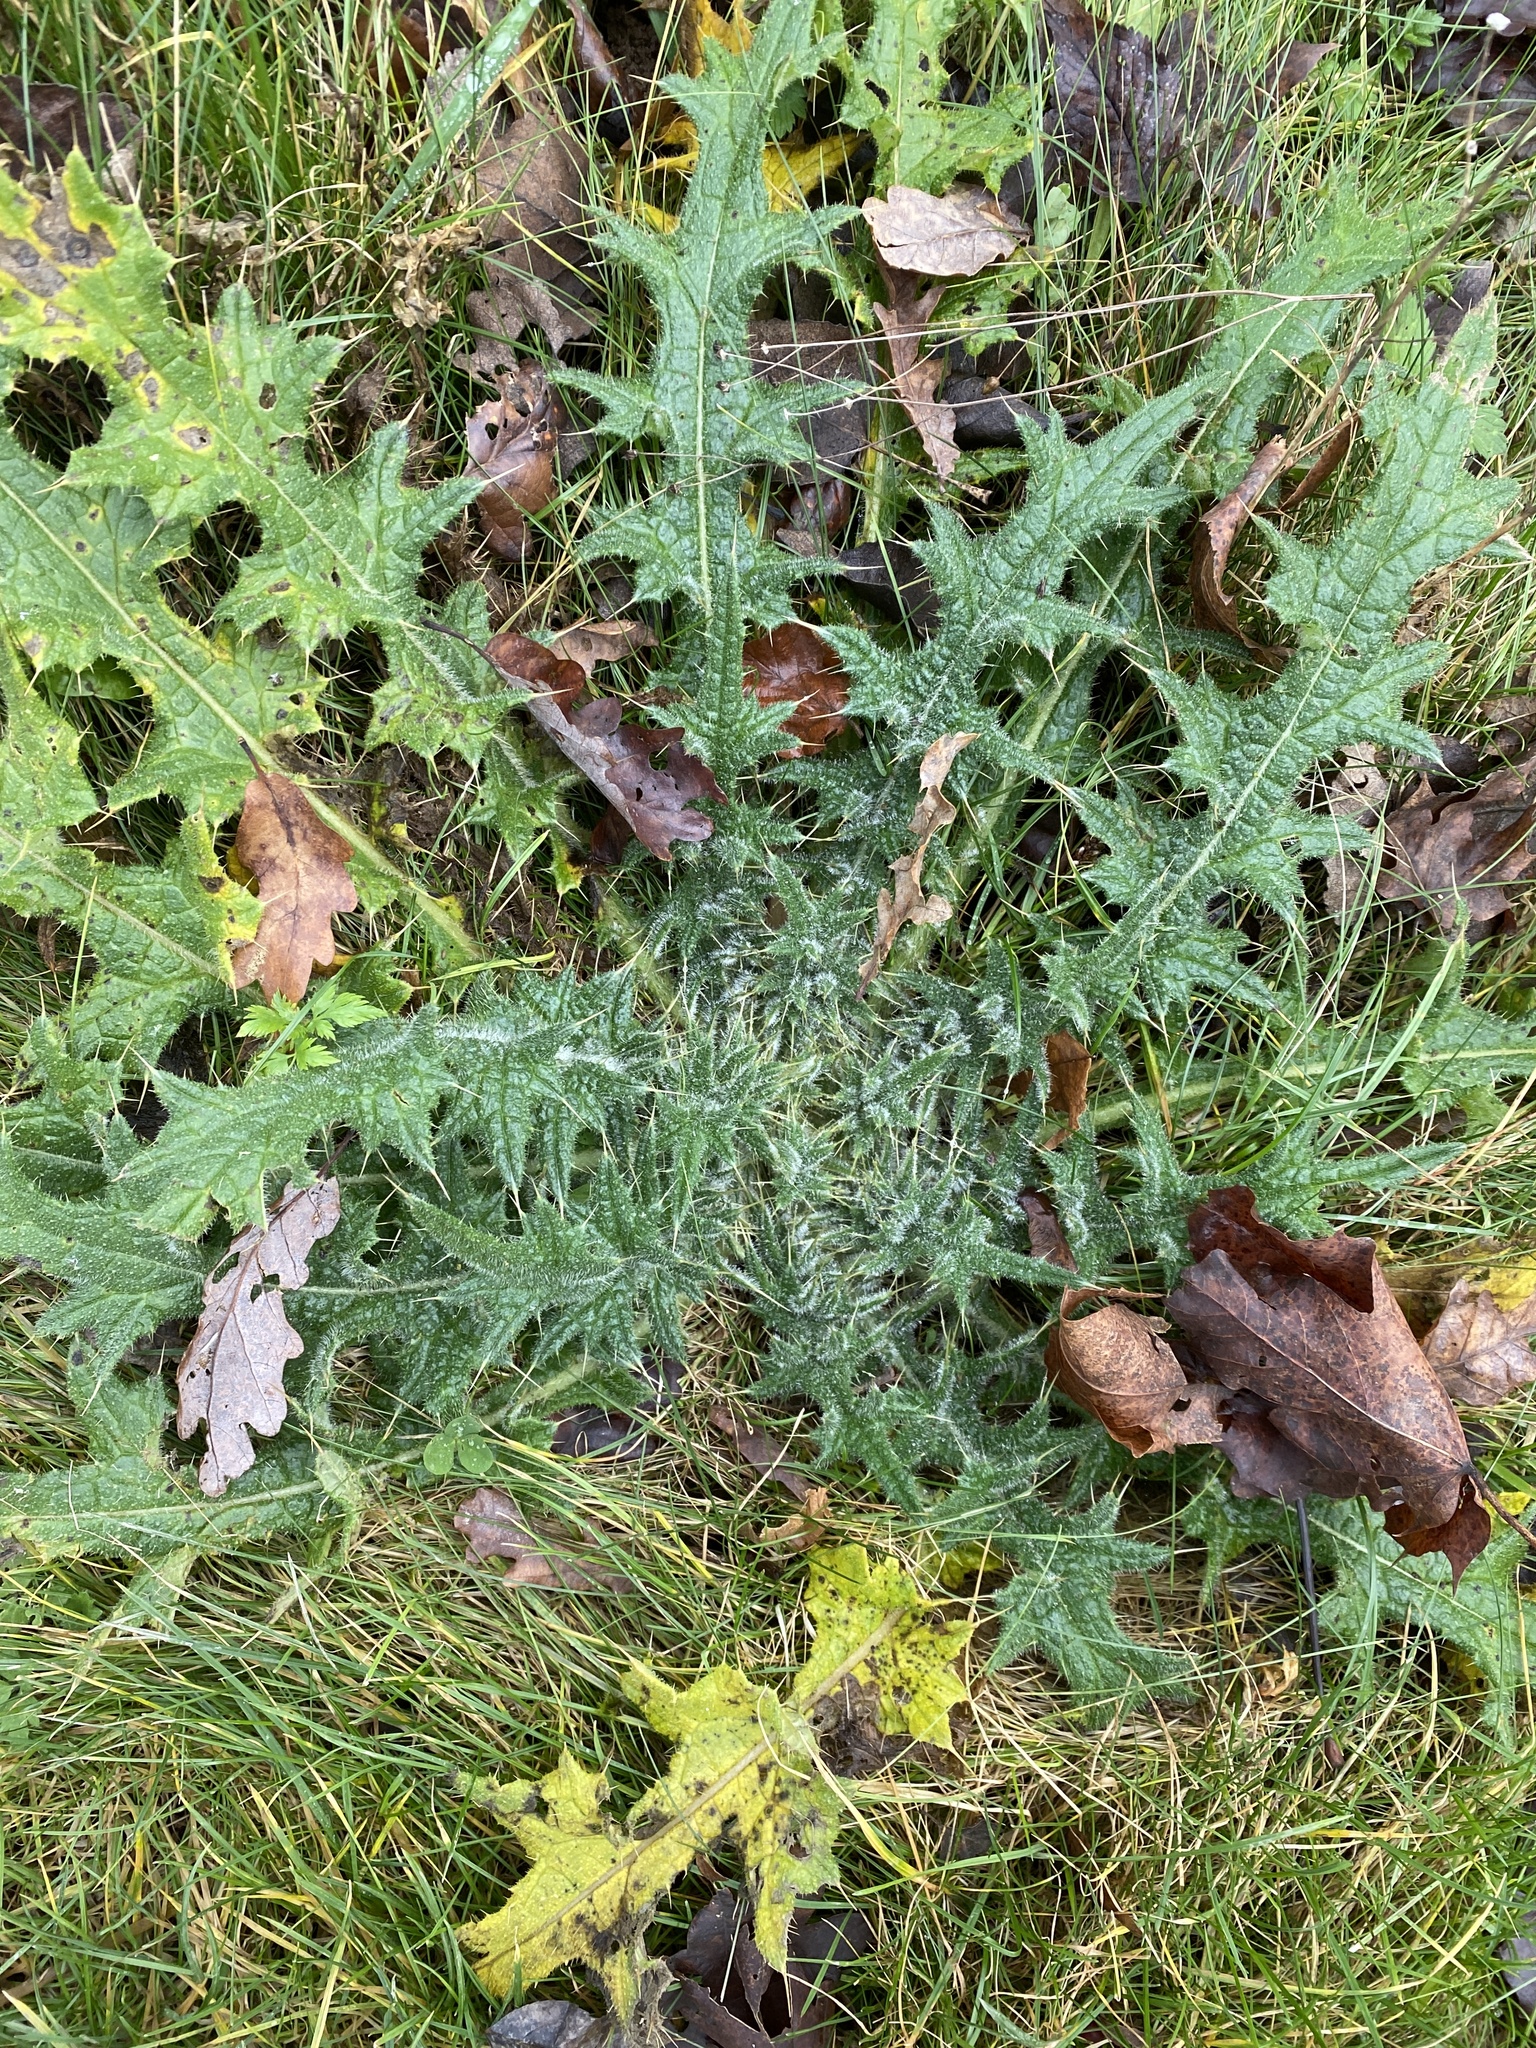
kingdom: Plantae
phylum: Tracheophyta
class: Magnoliopsida
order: Asterales
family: Asteraceae
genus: Cirsium
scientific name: Cirsium vulgare
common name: Bull thistle
